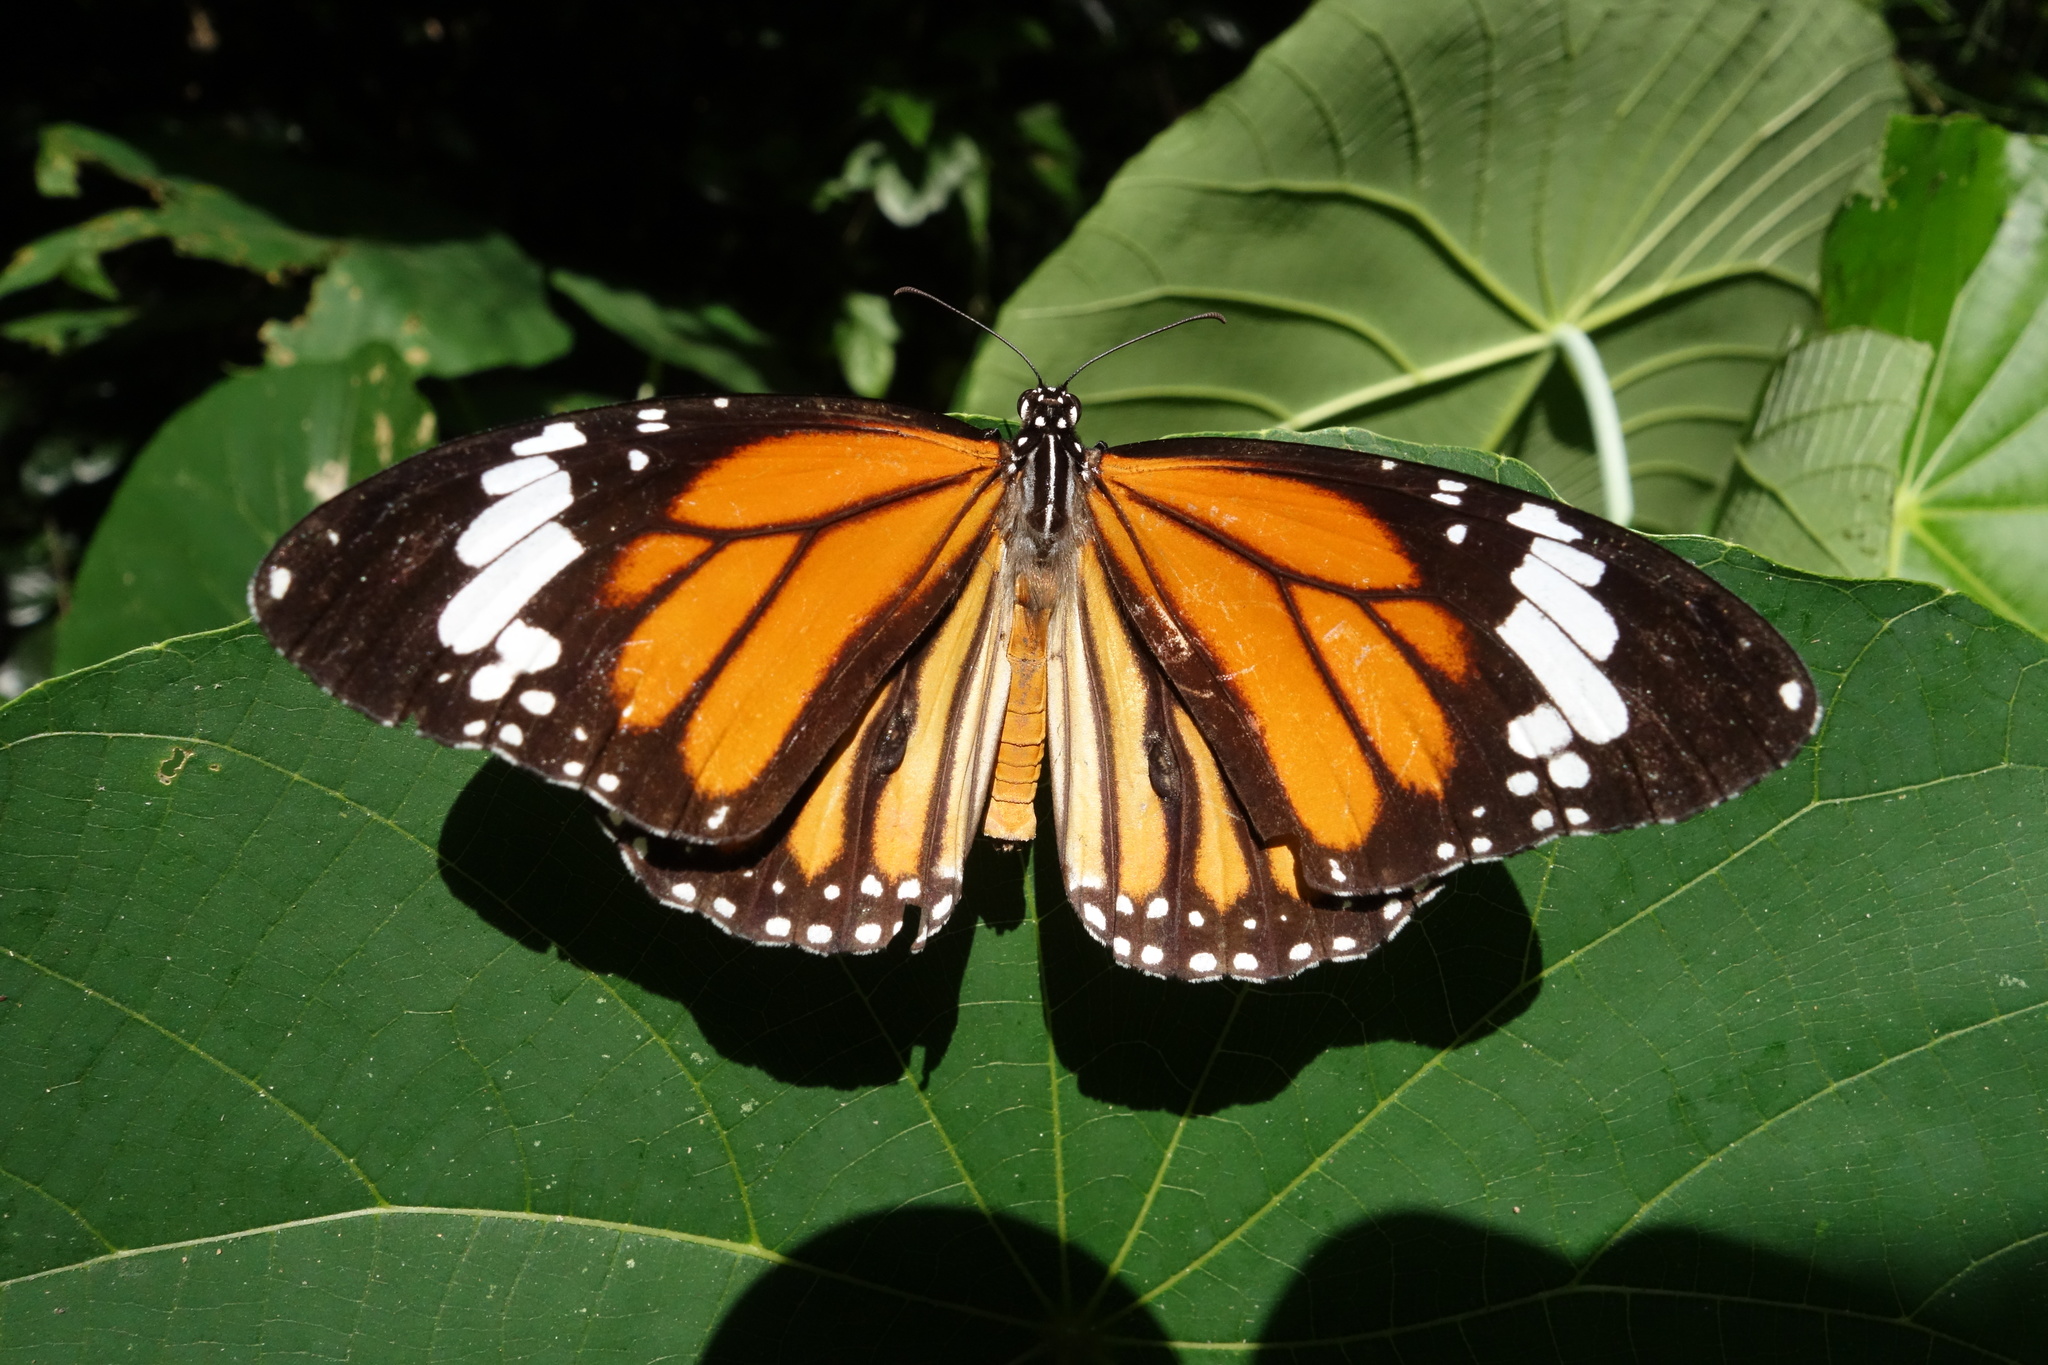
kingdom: Animalia
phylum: Arthropoda
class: Insecta
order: Lepidoptera
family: Nymphalidae
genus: Danaus
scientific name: Danaus genutia
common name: Common tiger butterfly
